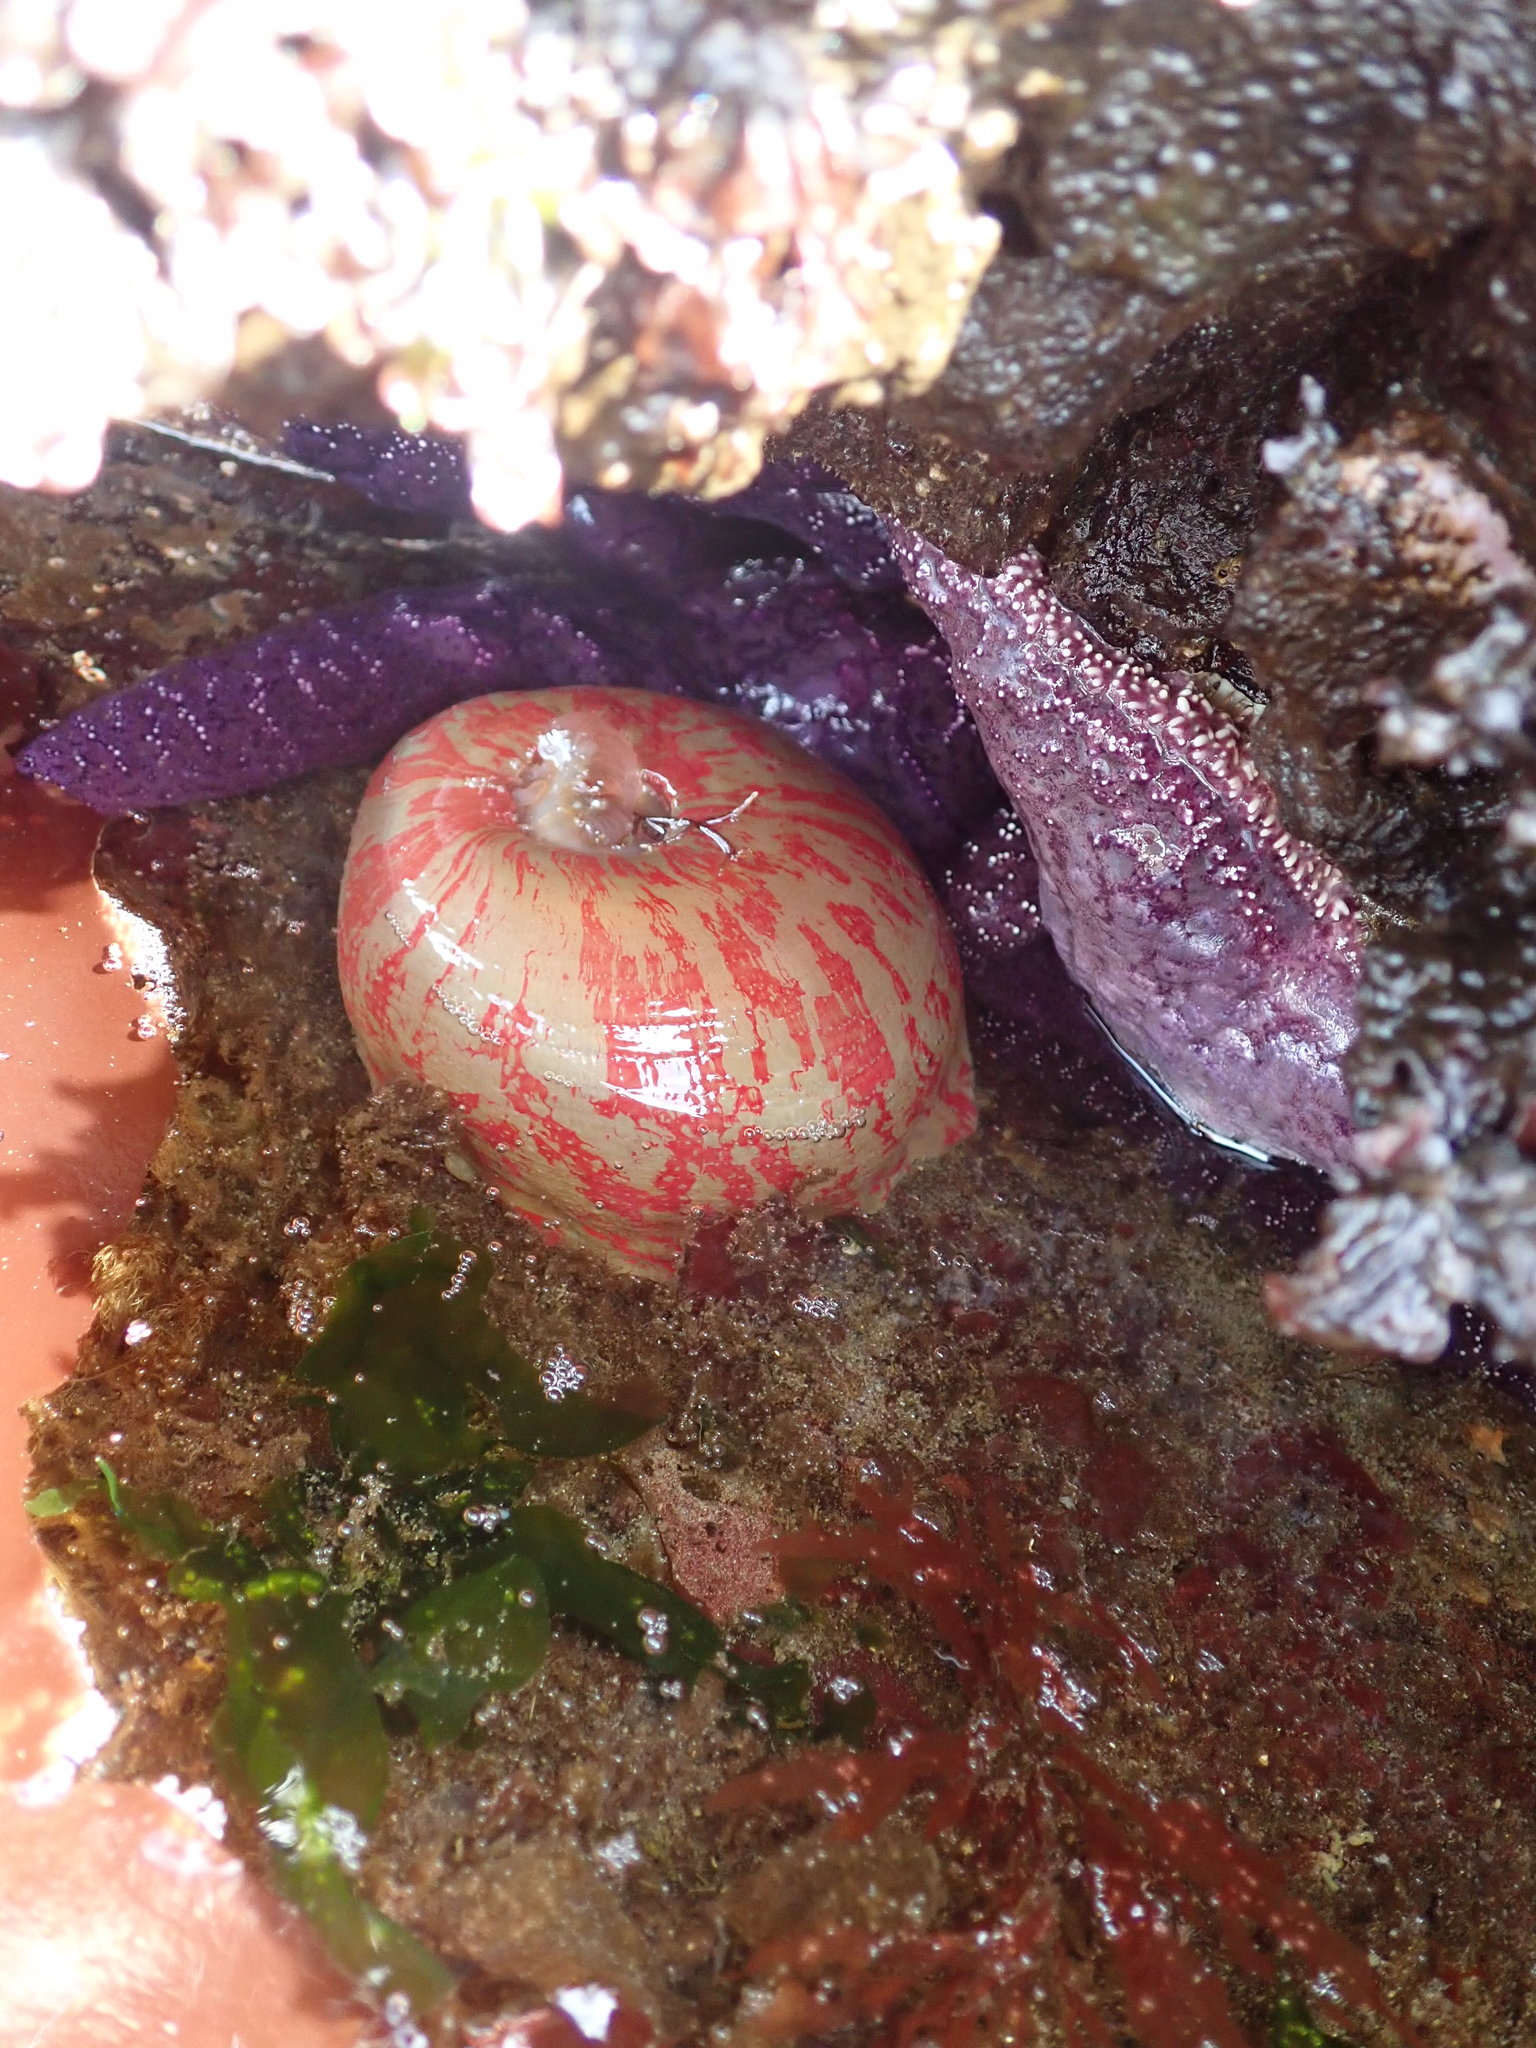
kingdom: Animalia
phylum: Cnidaria
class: Anthozoa
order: Actiniaria
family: Actiniidae
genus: Urticina
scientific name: Urticina grebelnyi
